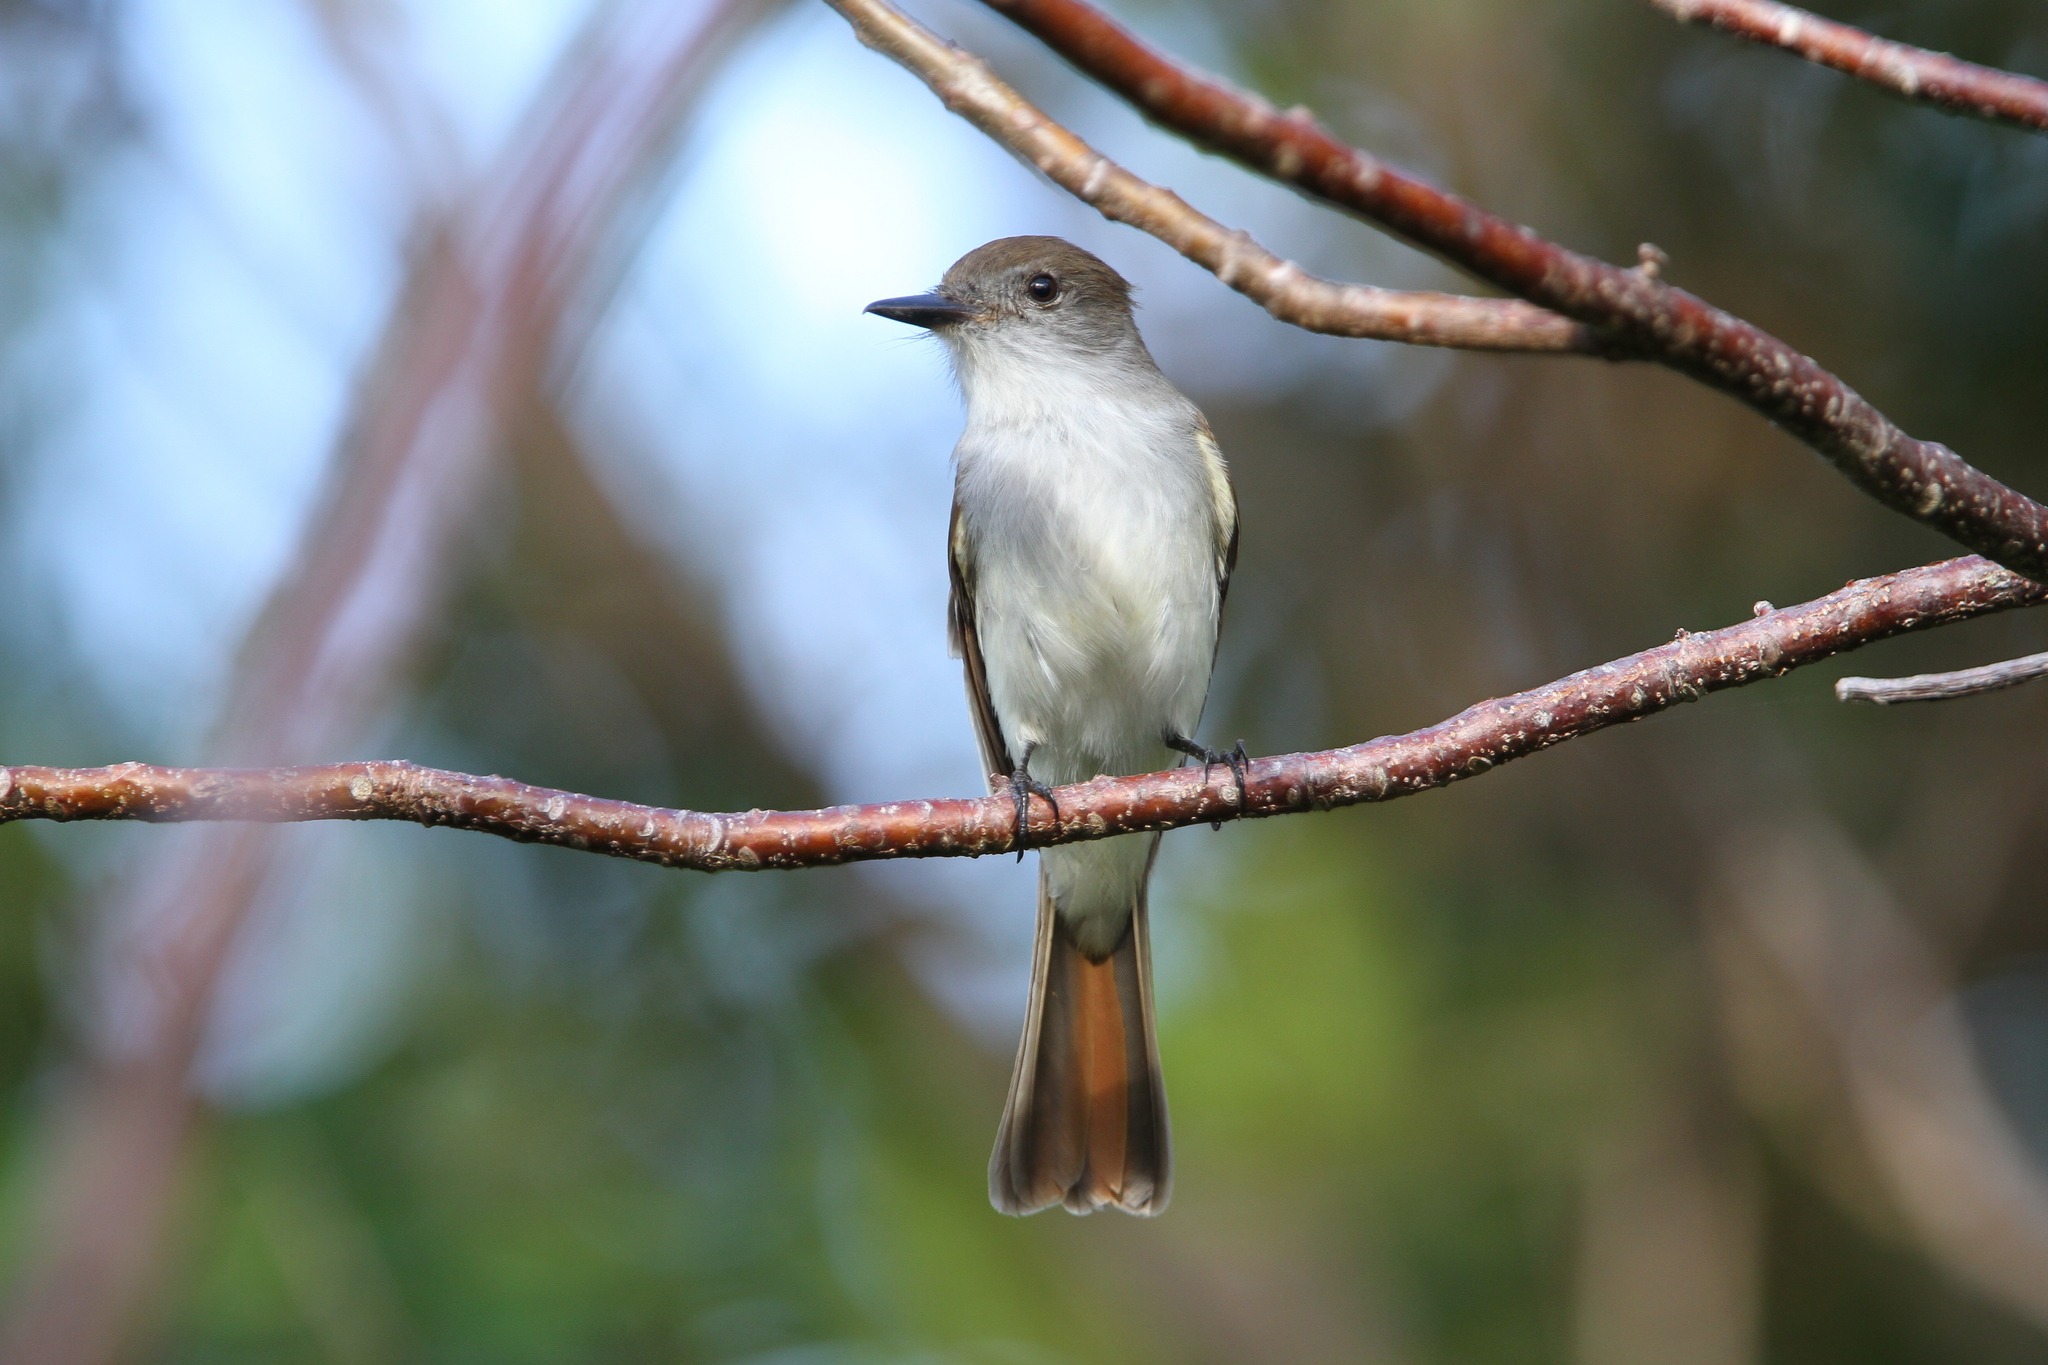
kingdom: Animalia
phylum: Chordata
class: Aves
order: Passeriformes
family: Tyrannidae
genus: Myiarchus
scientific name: Myiarchus sagrae
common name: La sagra's flycatcher
